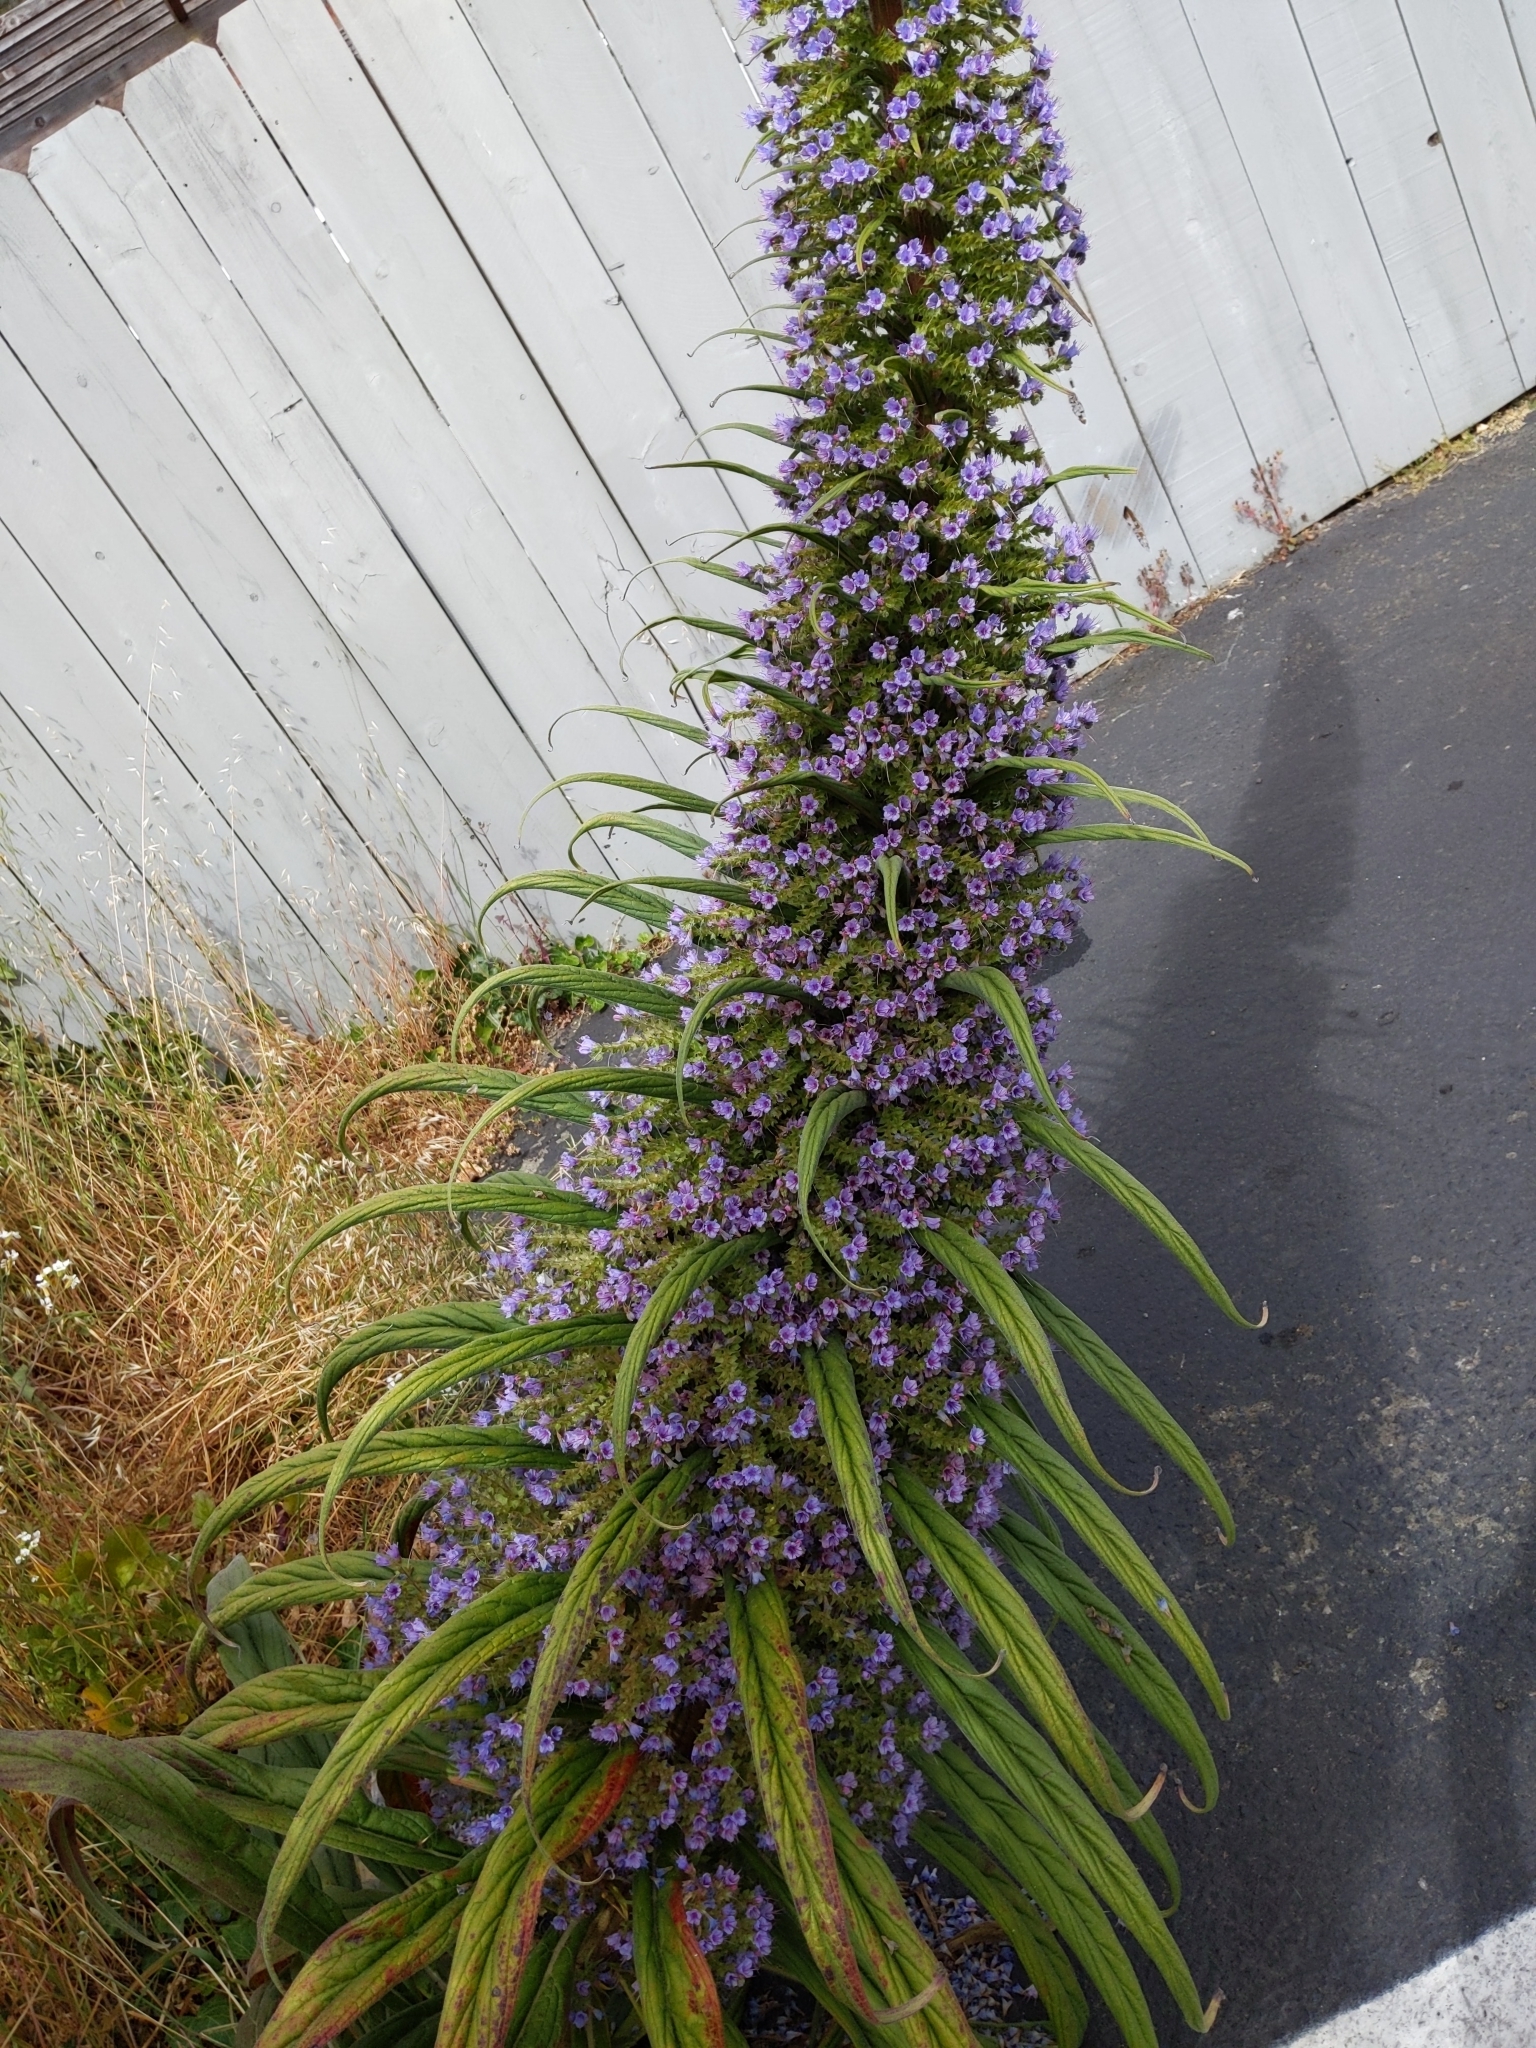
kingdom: Plantae
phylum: Tracheophyta
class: Magnoliopsida
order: Boraginales
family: Boraginaceae
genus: Echium
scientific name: Echium pininana
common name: Giant viper's-bugloss
